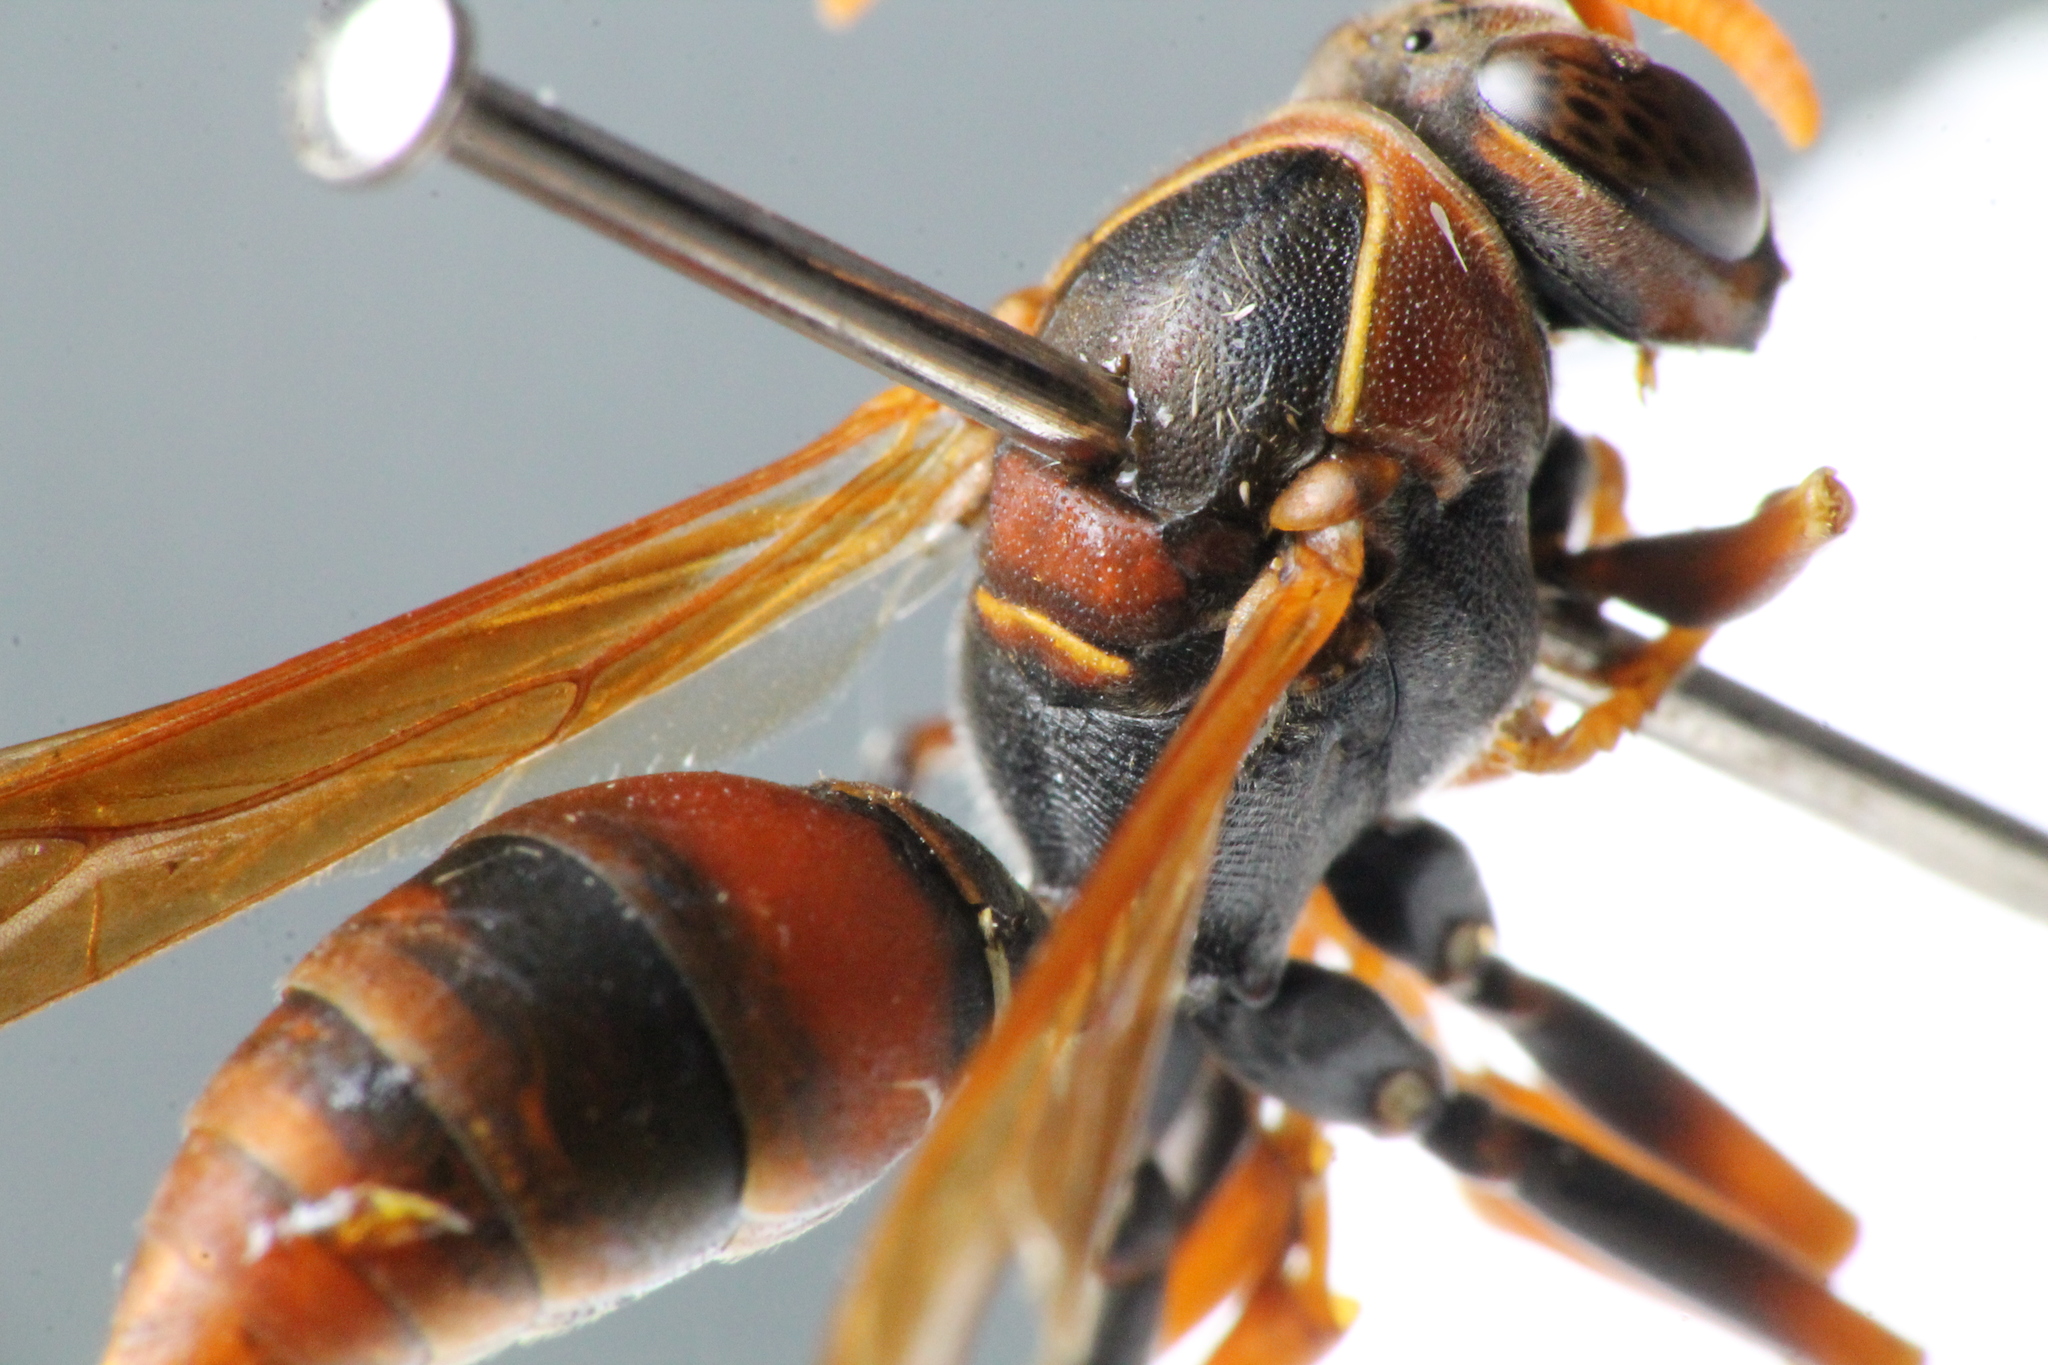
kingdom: Animalia
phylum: Arthropoda
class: Insecta
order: Hymenoptera
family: Eumenidae
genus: Polistes
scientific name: Polistes humilis
